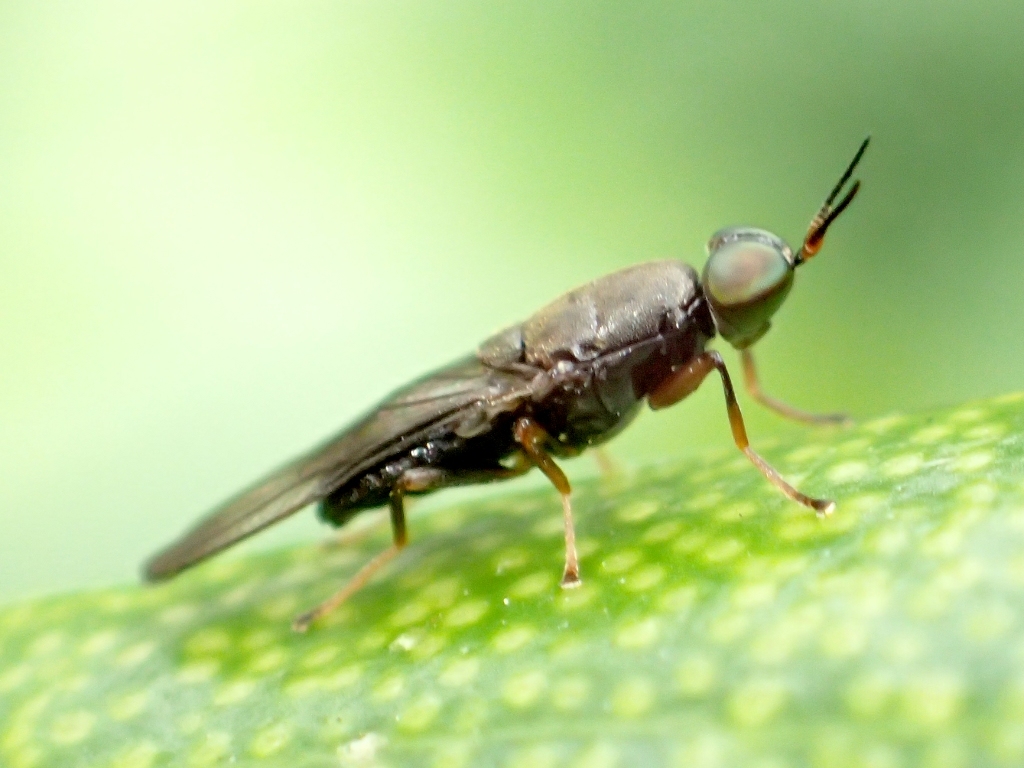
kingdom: Animalia
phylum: Arthropoda
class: Insecta
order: Diptera
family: Stratiomyidae
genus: Dysbiota
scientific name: Dysbiota peregrina
